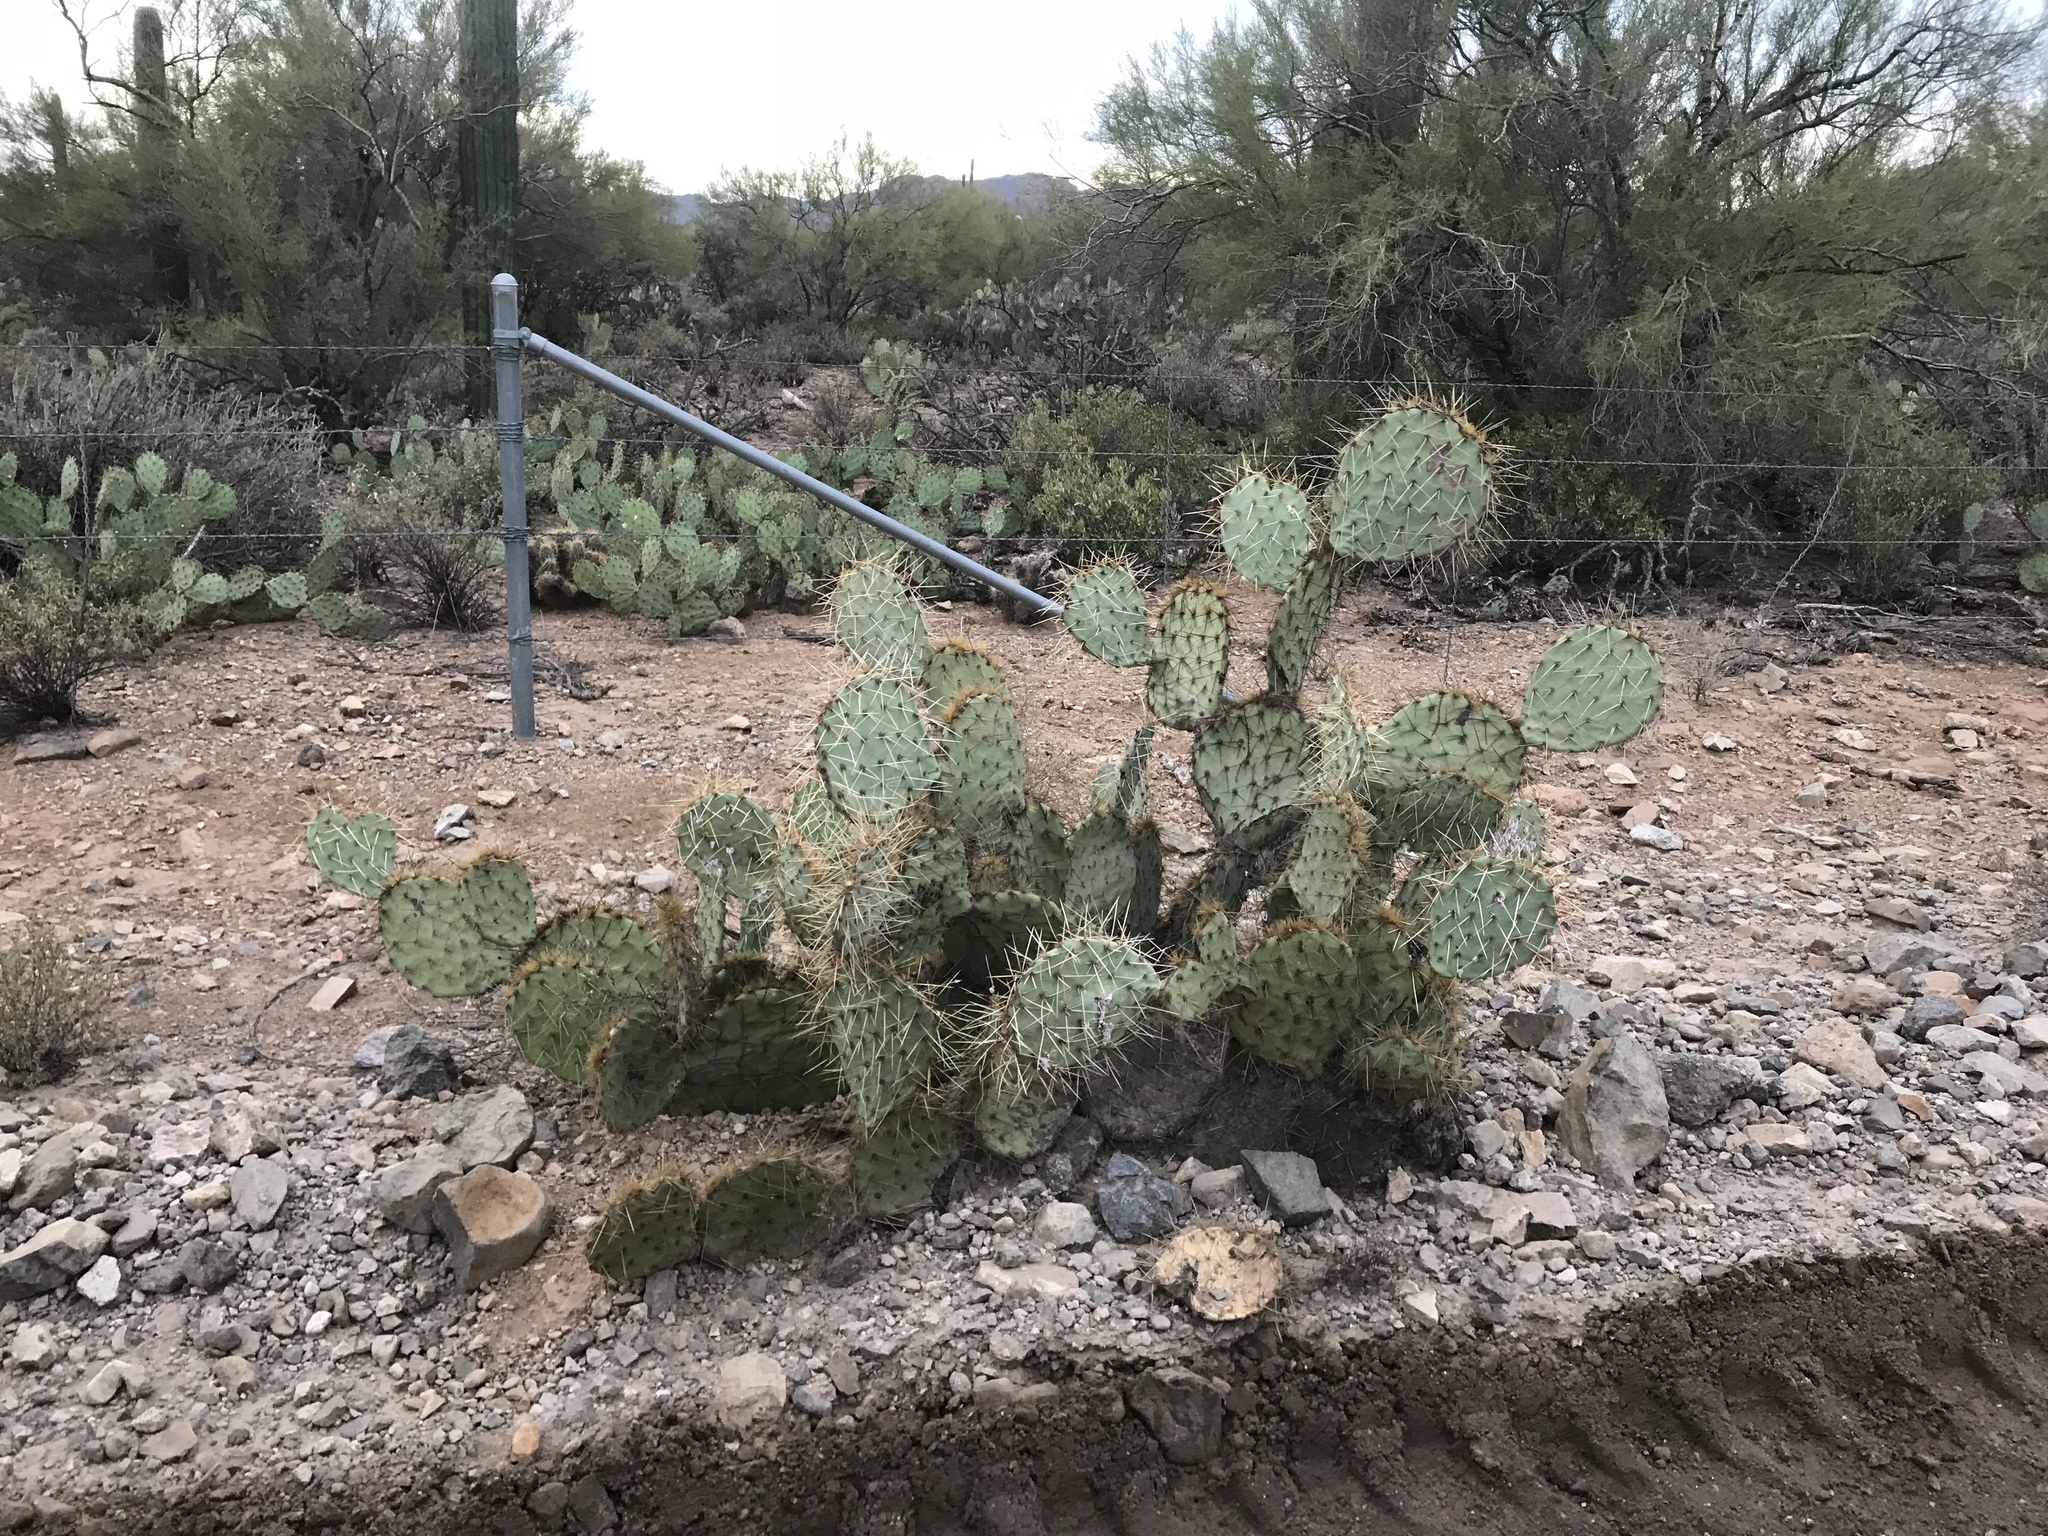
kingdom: Plantae
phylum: Tracheophyta
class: Magnoliopsida
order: Caryophyllales
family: Cactaceae
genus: Opuntia
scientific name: Opuntia phaeacantha
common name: New mexico prickly-pear
